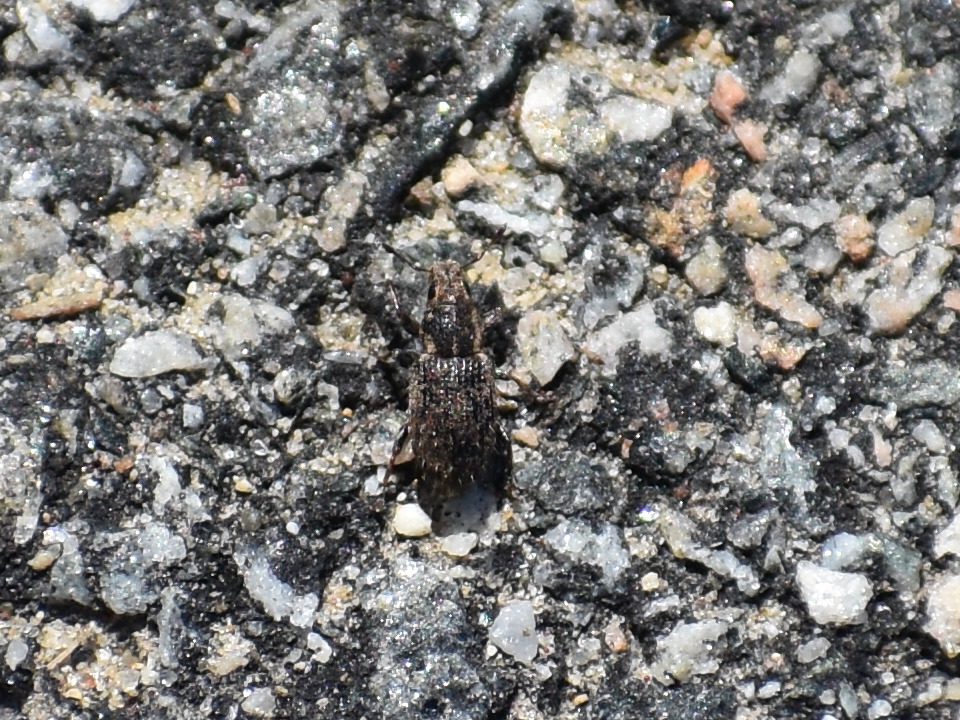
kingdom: Animalia
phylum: Arthropoda
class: Insecta
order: Coleoptera
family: Curculionidae
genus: Sitona
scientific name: Sitona hispidulus
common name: Clover weevil
